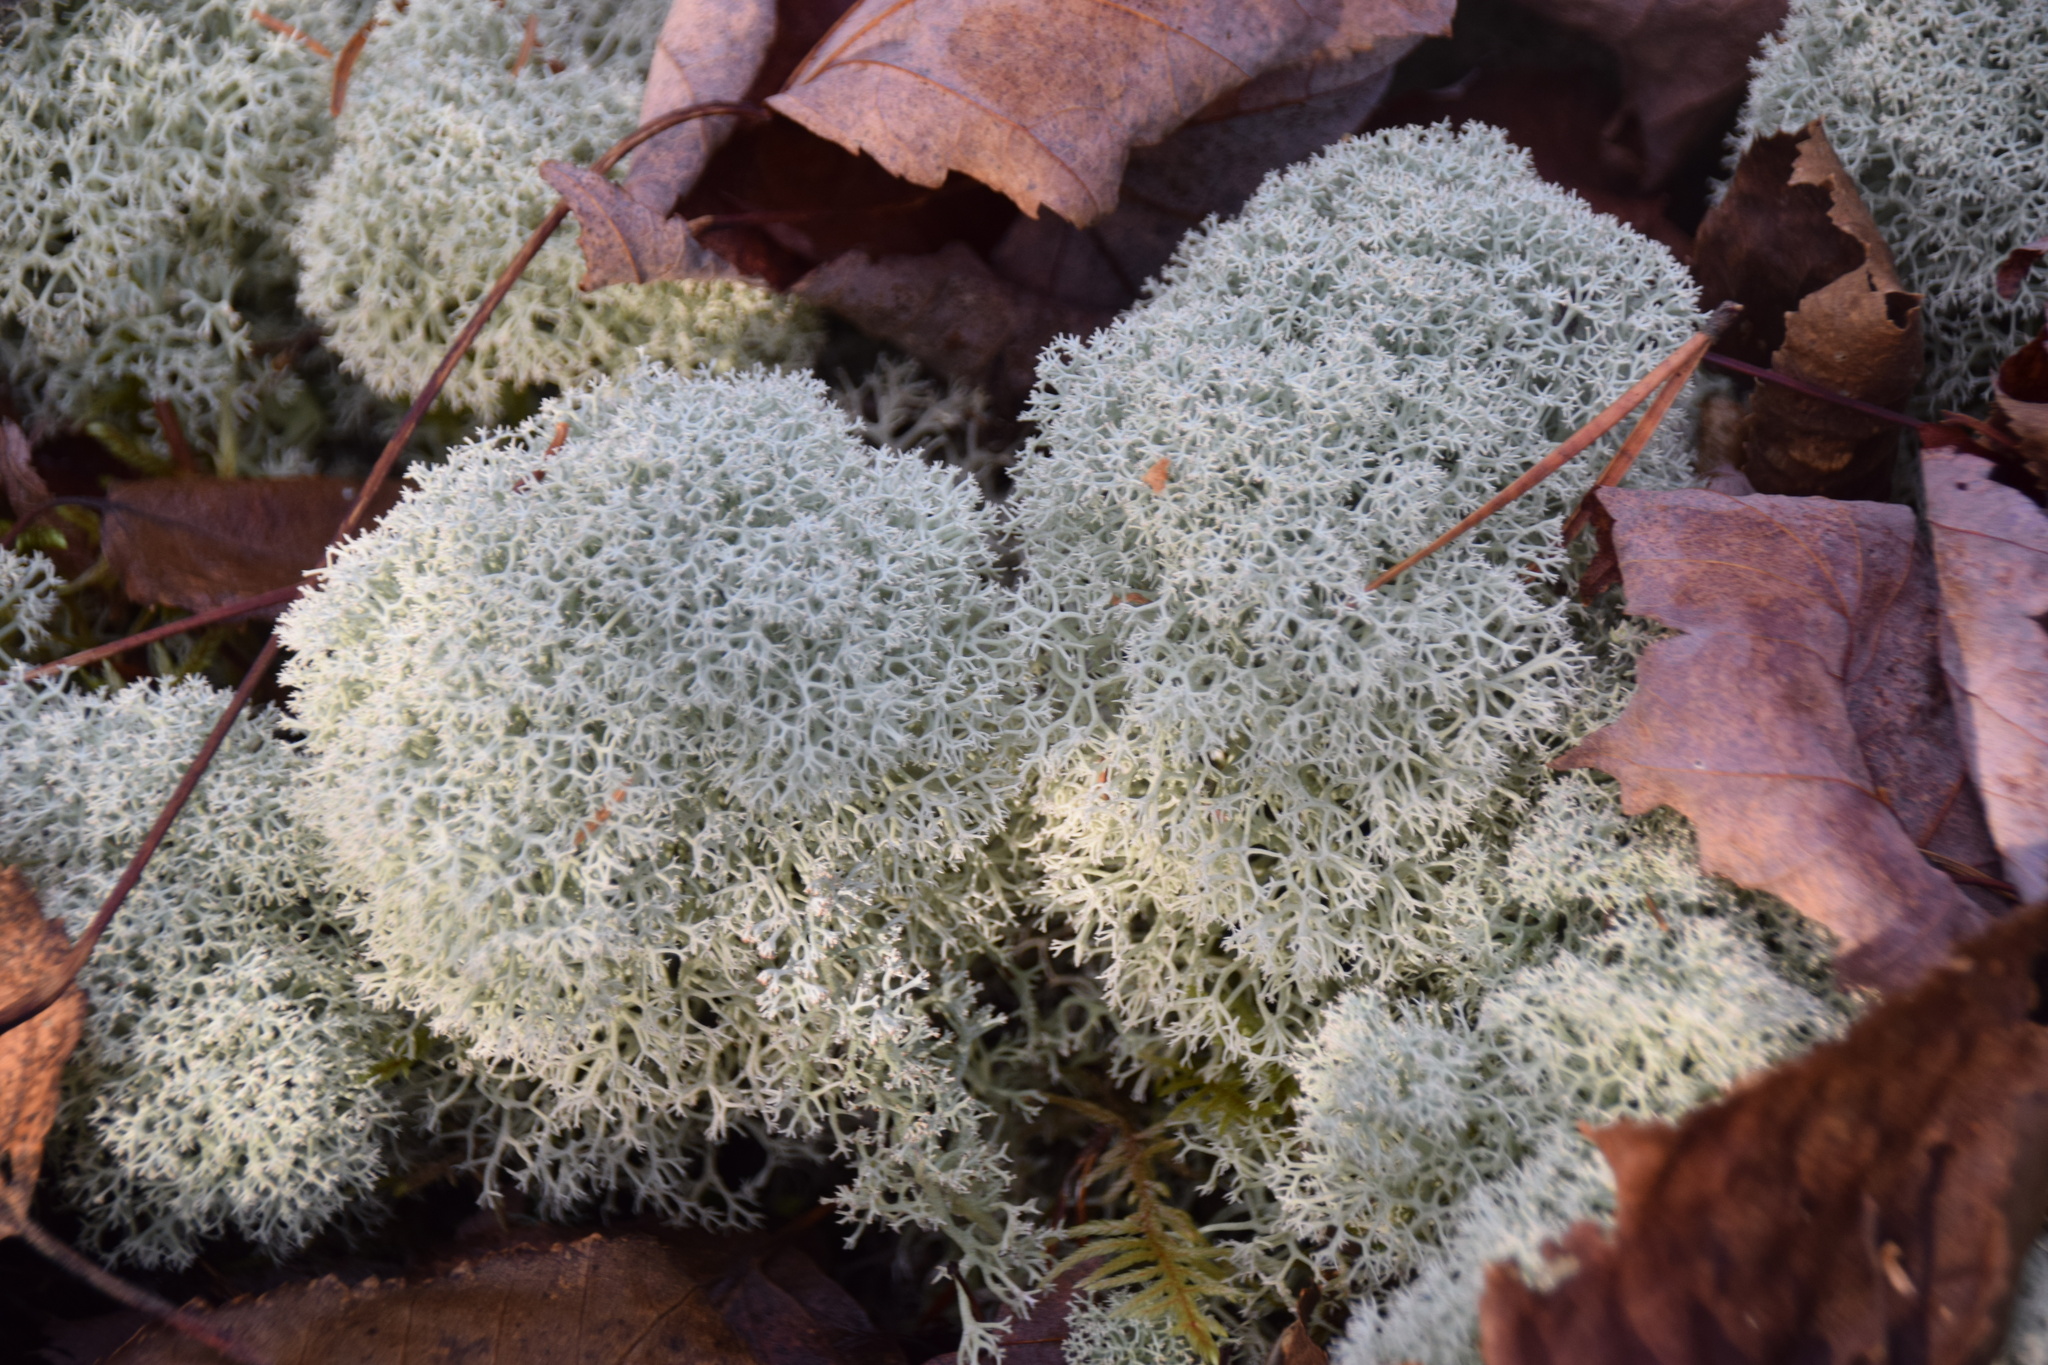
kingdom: Fungi
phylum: Ascomycota
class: Lecanoromycetes
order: Lecanorales
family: Cladoniaceae
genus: Cladonia
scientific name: Cladonia stellaris
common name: Star-tipped reindeer lichen
